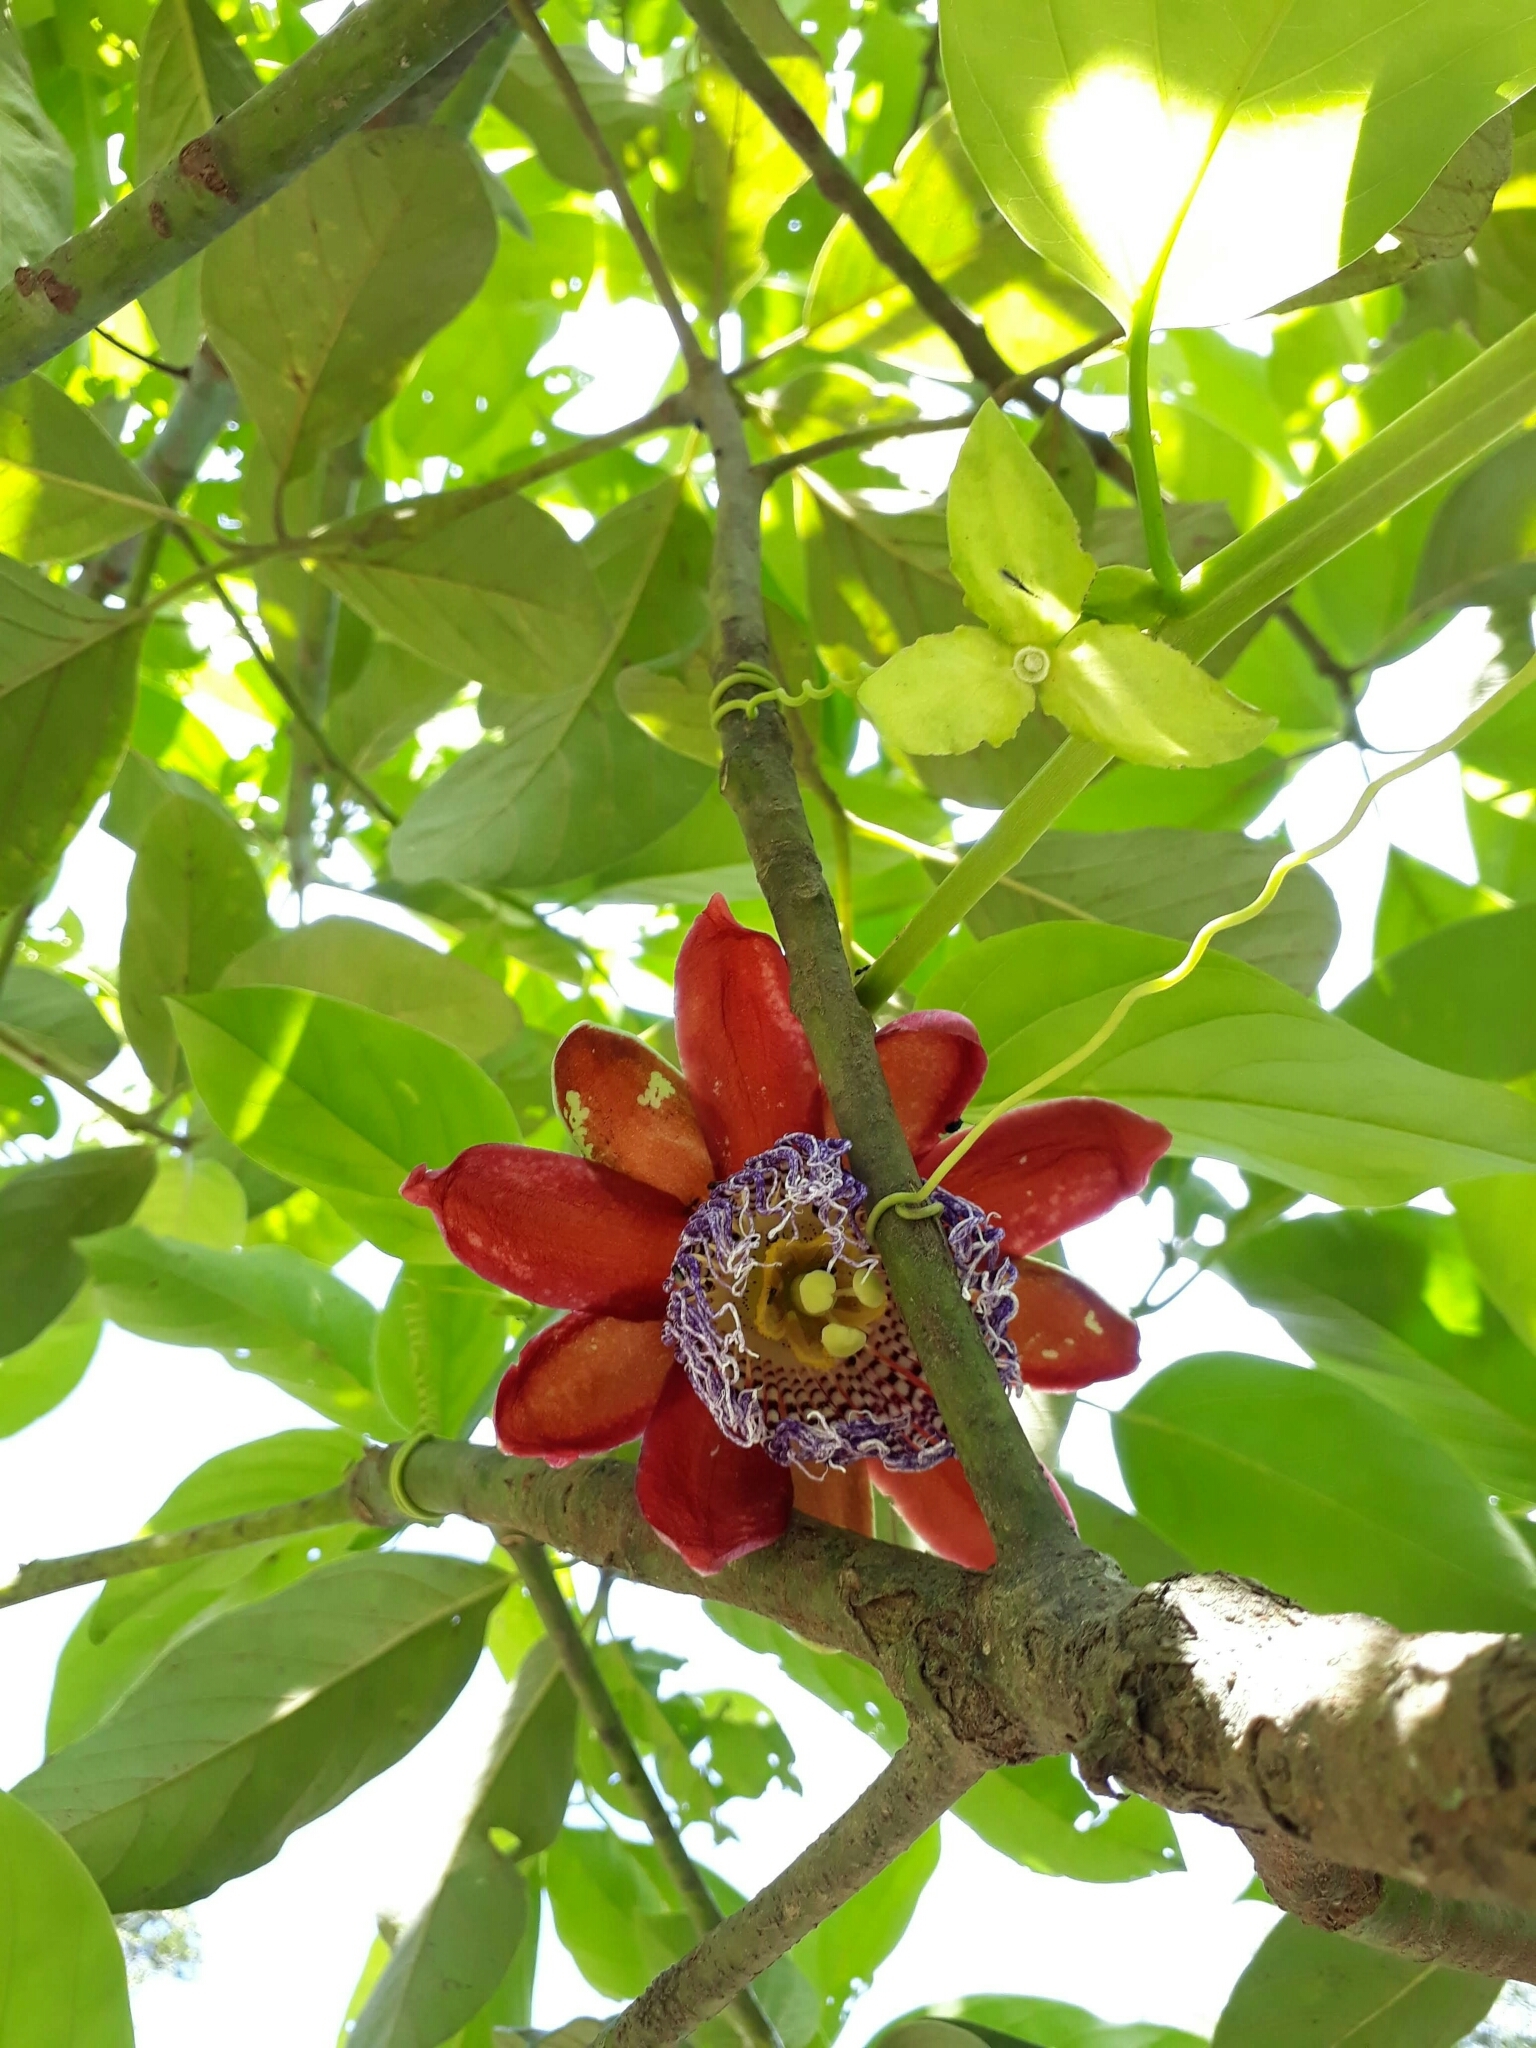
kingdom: Plantae
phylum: Tracheophyta
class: Magnoliopsida
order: Malpighiales
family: Passifloraceae
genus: Passiflora
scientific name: Passiflora alata
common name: Wing-stemmed passion flower
